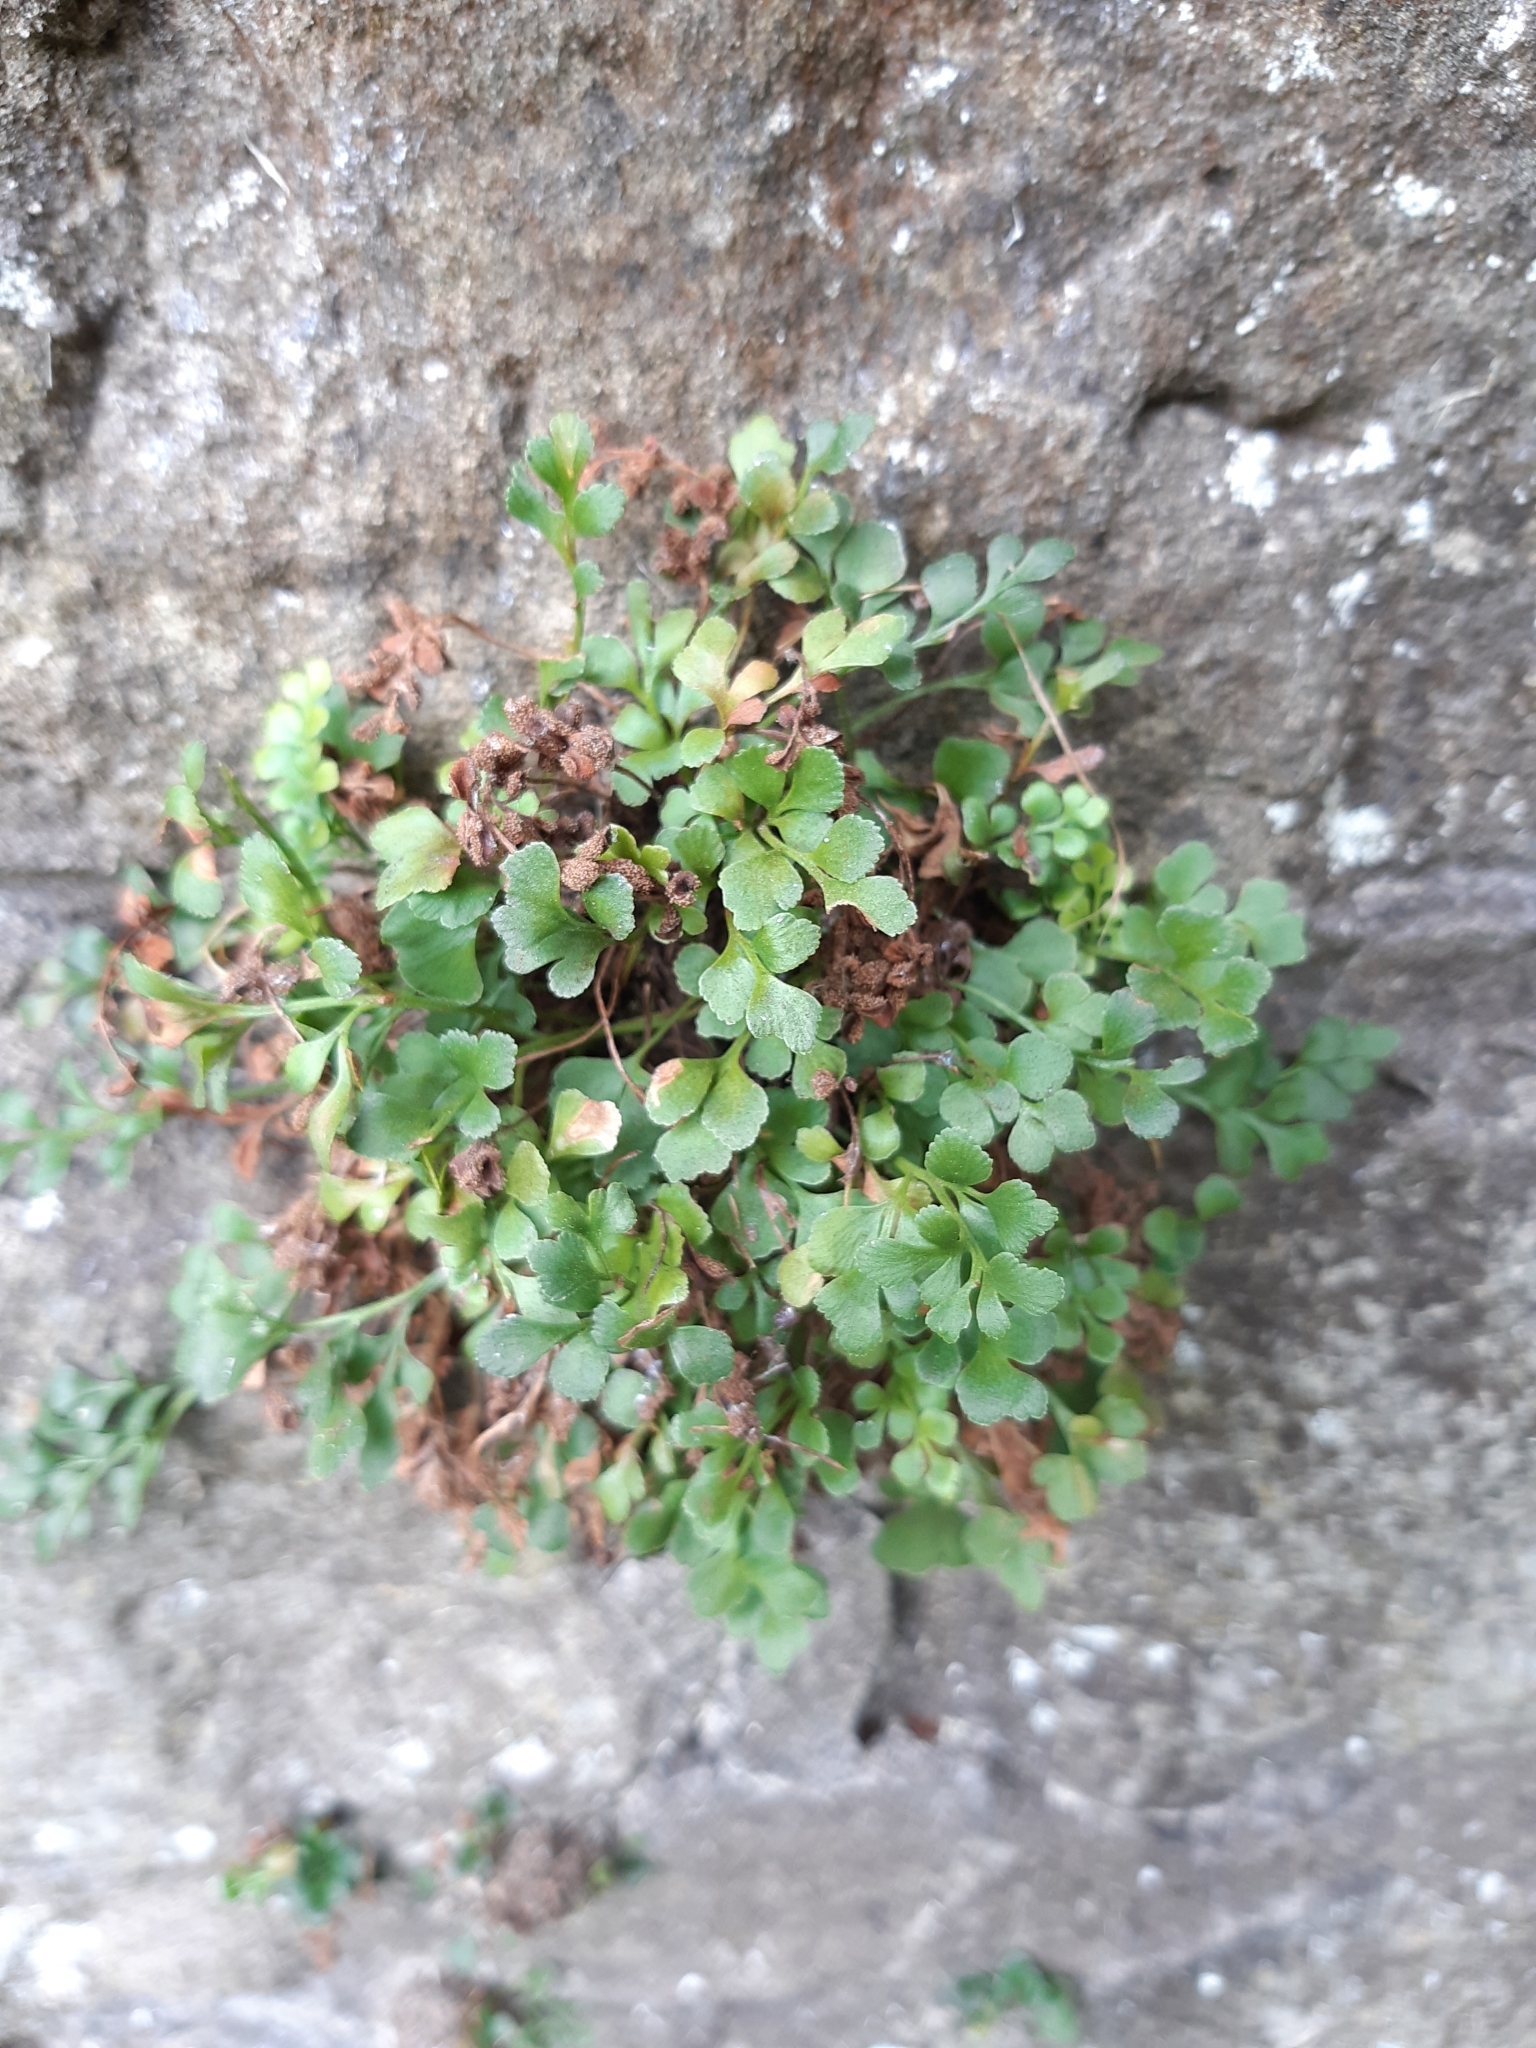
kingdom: Plantae
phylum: Tracheophyta
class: Polypodiopsida
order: Polypodiales
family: Aspleniaceae
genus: Asplenium
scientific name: Asplenium ruta-muraria
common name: Wall-rue
